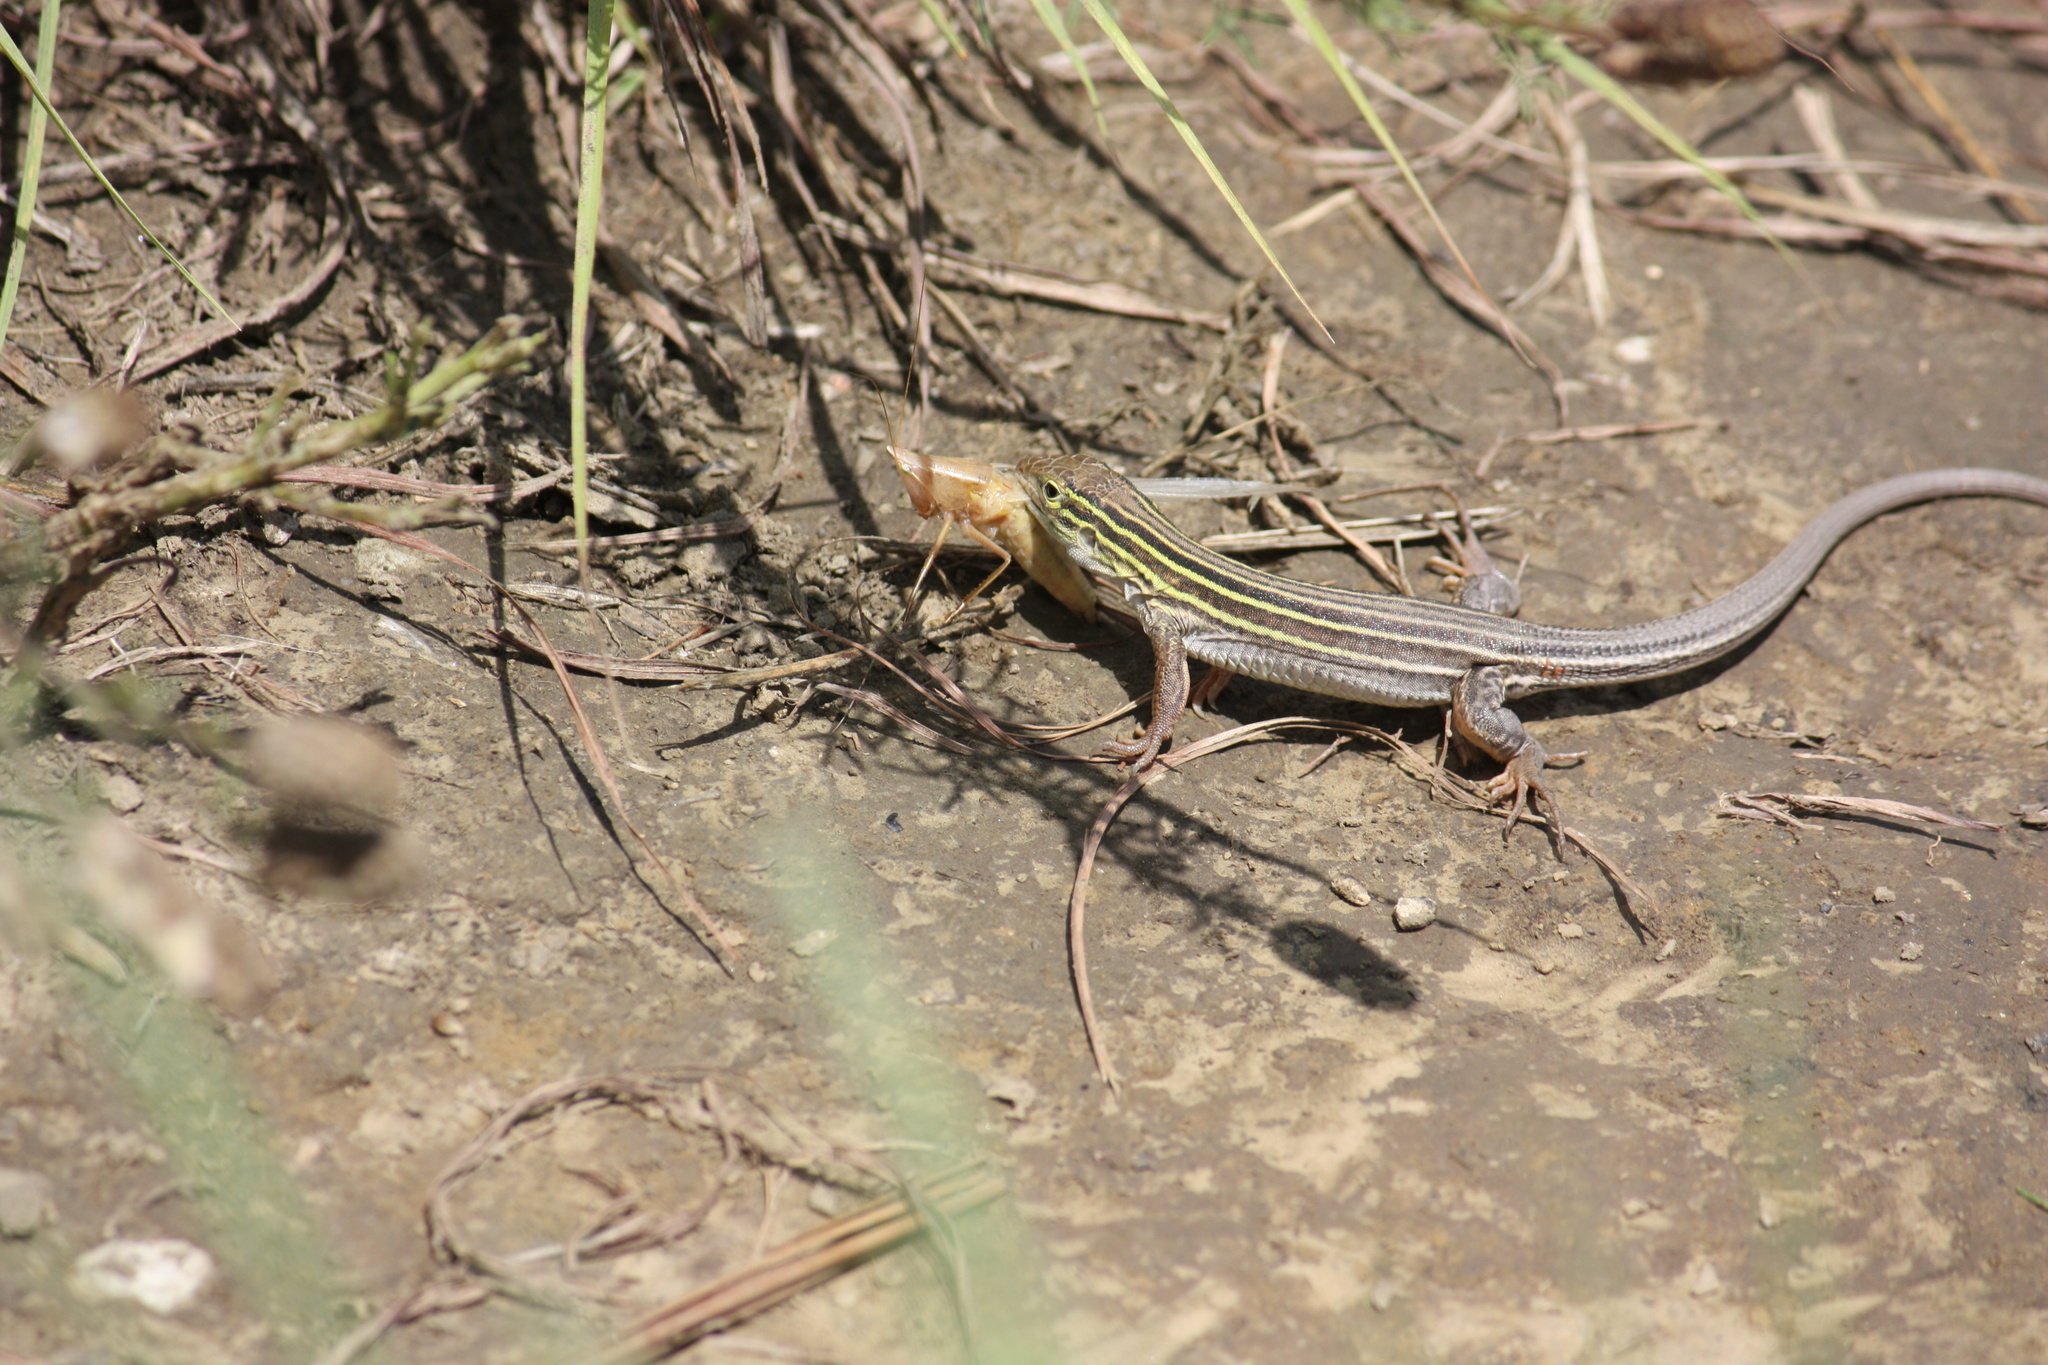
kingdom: Animalia
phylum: Chordata
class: Squamata
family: Teiidae
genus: Aspidoscelis
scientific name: Aspidoscelis sexlineatus
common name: Six-lined racerunner
